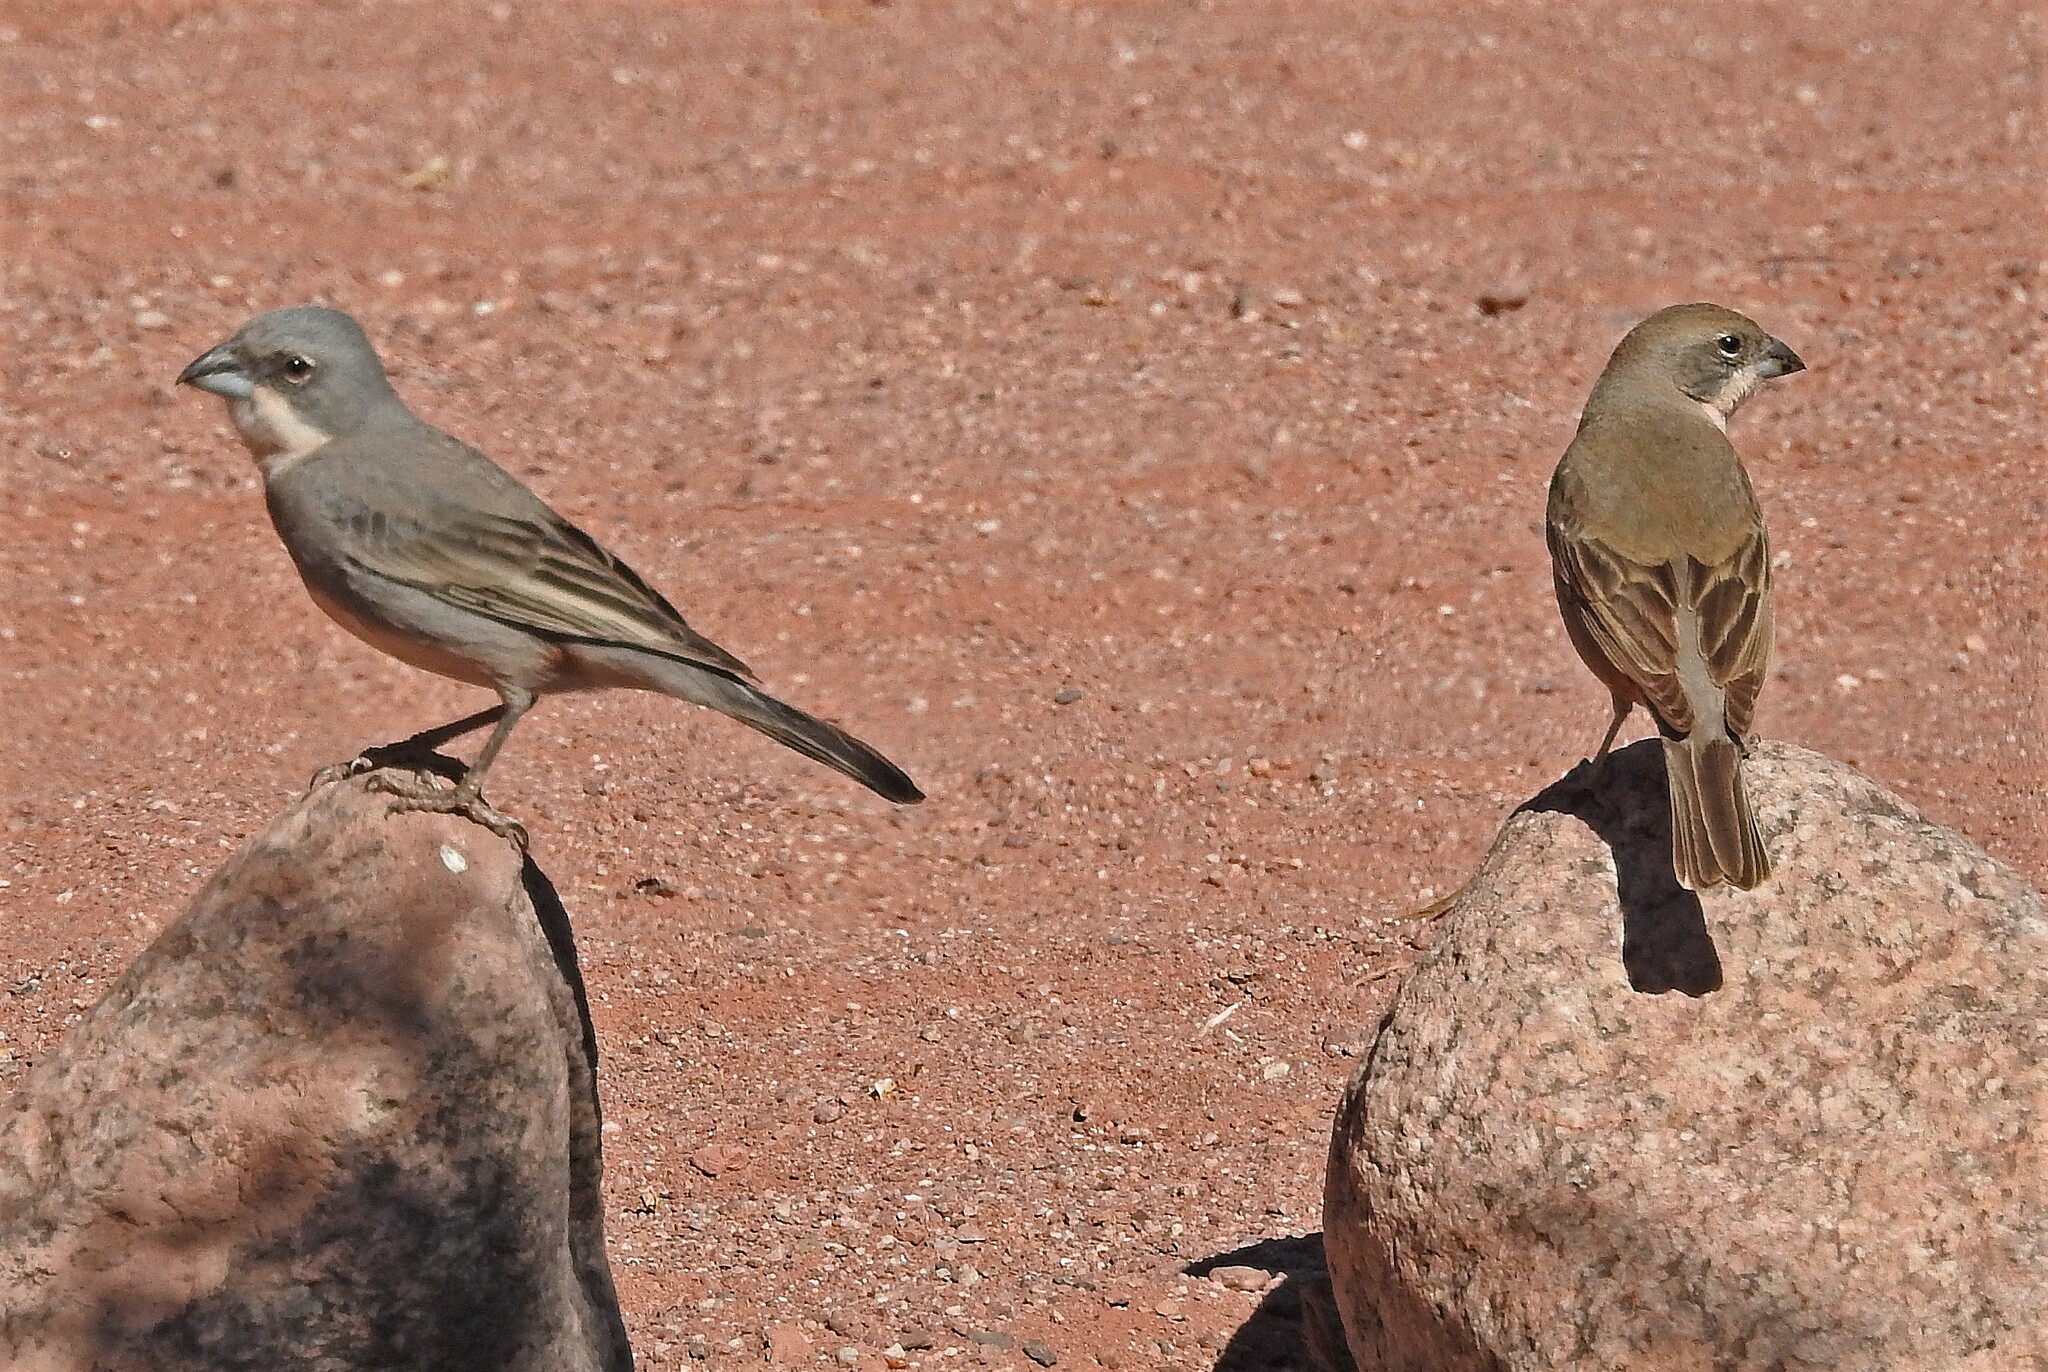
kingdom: Animalia
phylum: Chordata
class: Aves
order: Passeriformes
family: Thraupidae
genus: Diuca
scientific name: Diuca diuca
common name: Common diuca finch
